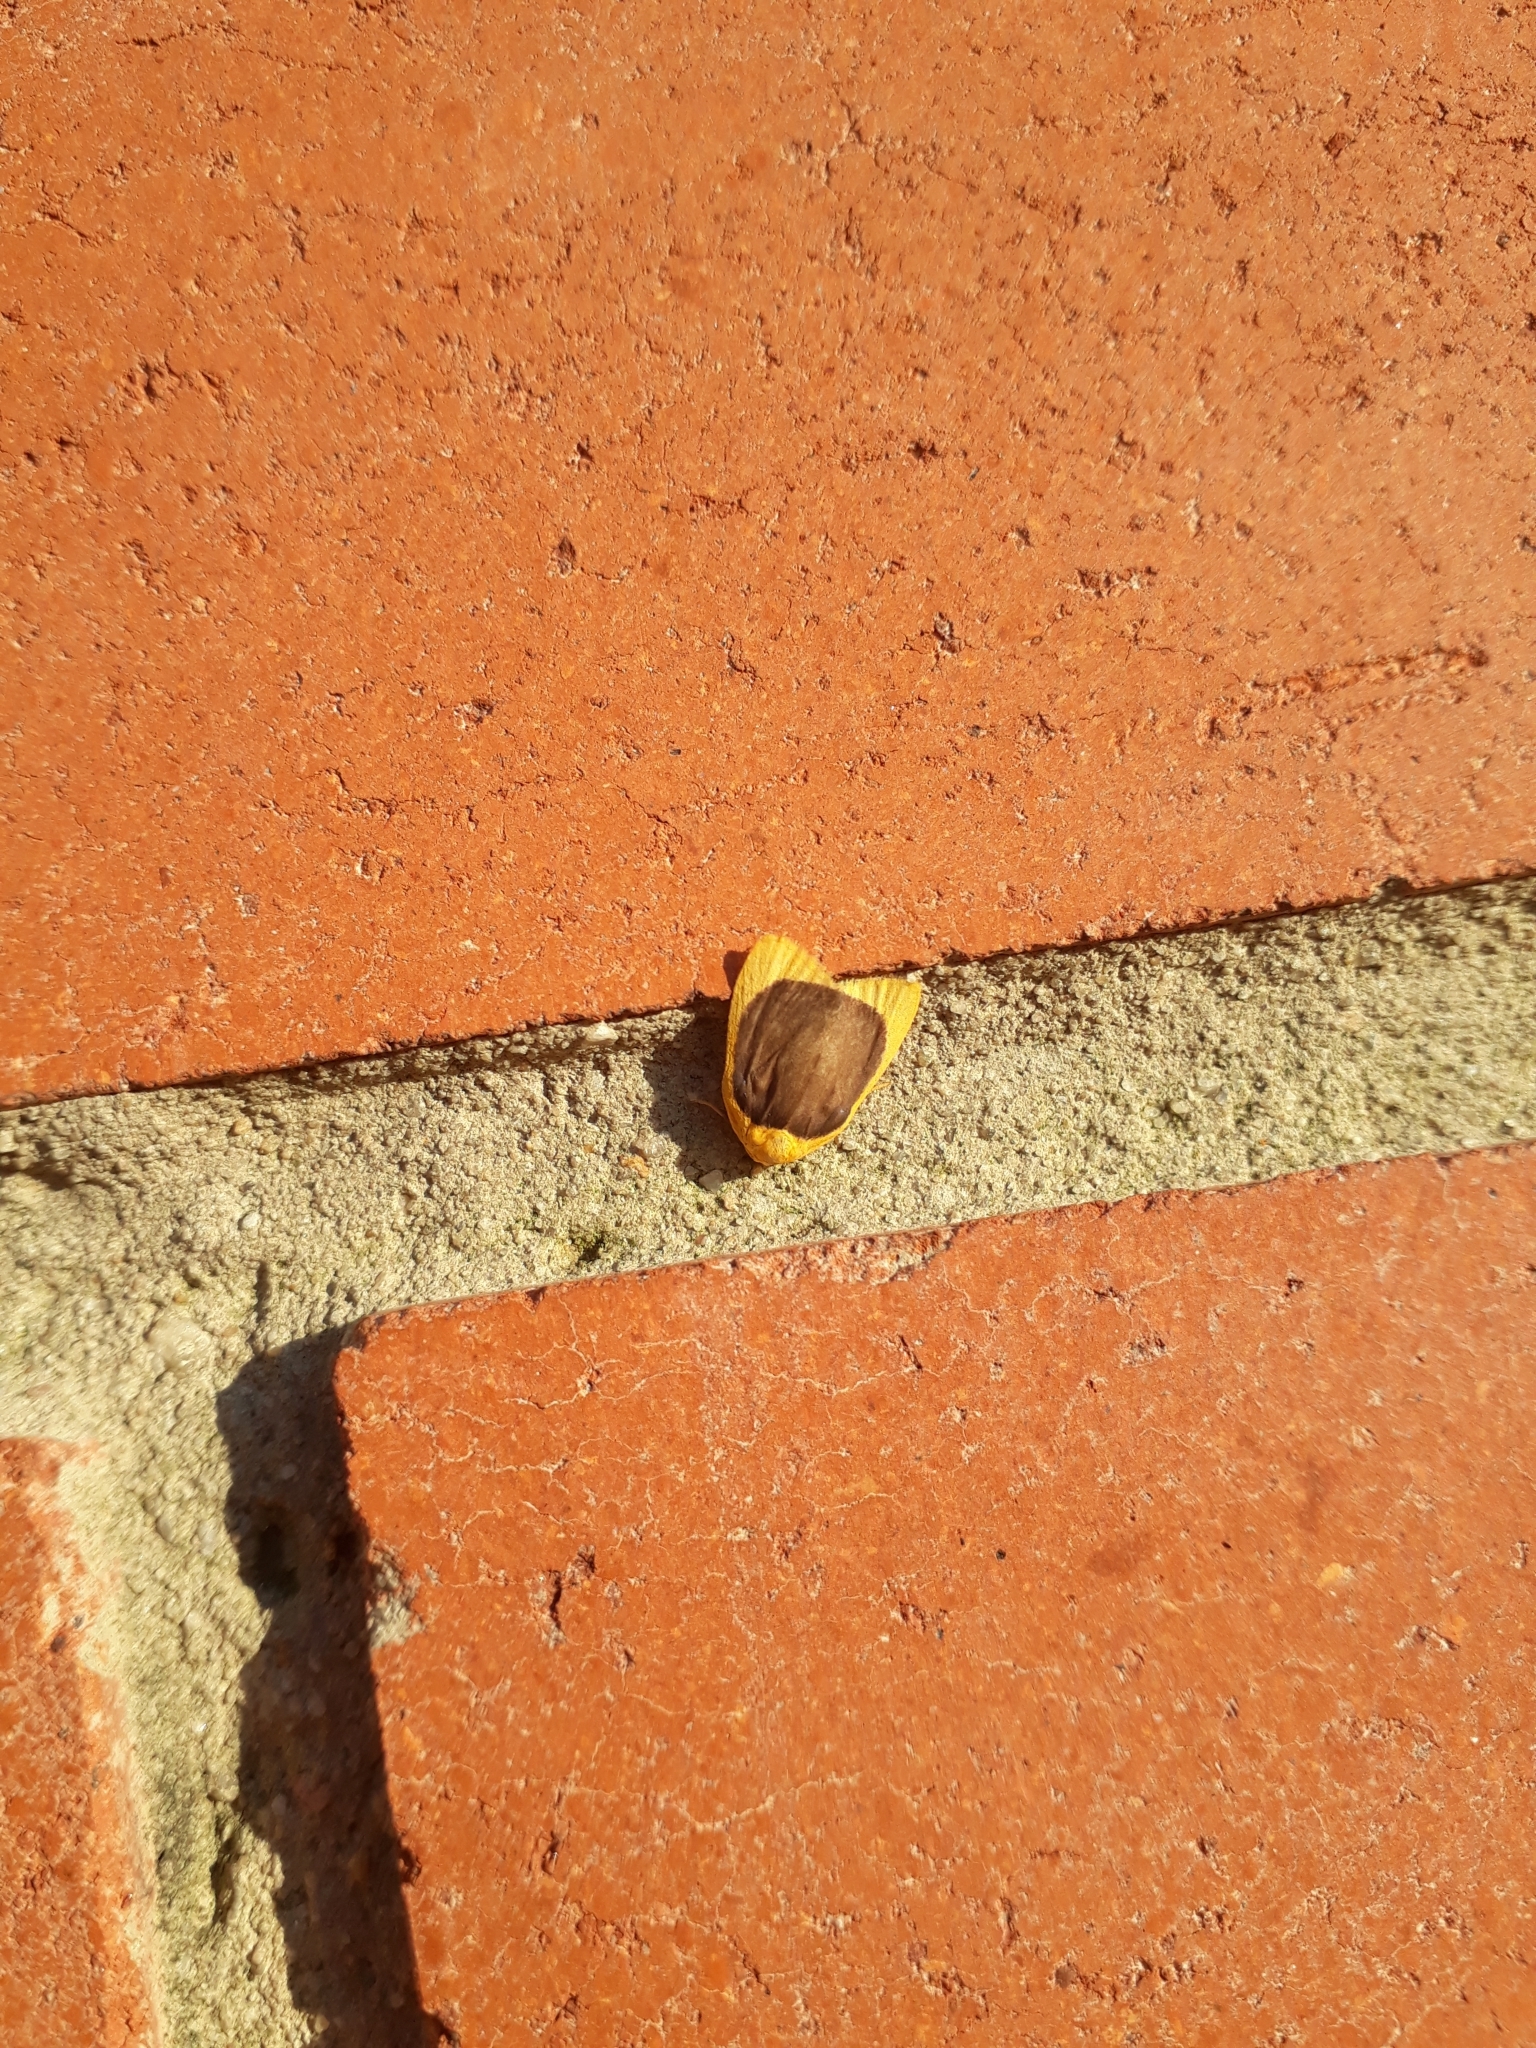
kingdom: Animalia
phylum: Arthropoda
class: Insecta
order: Lepidoptera
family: Erebidae
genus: Pronola
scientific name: Pronola magniplaga
